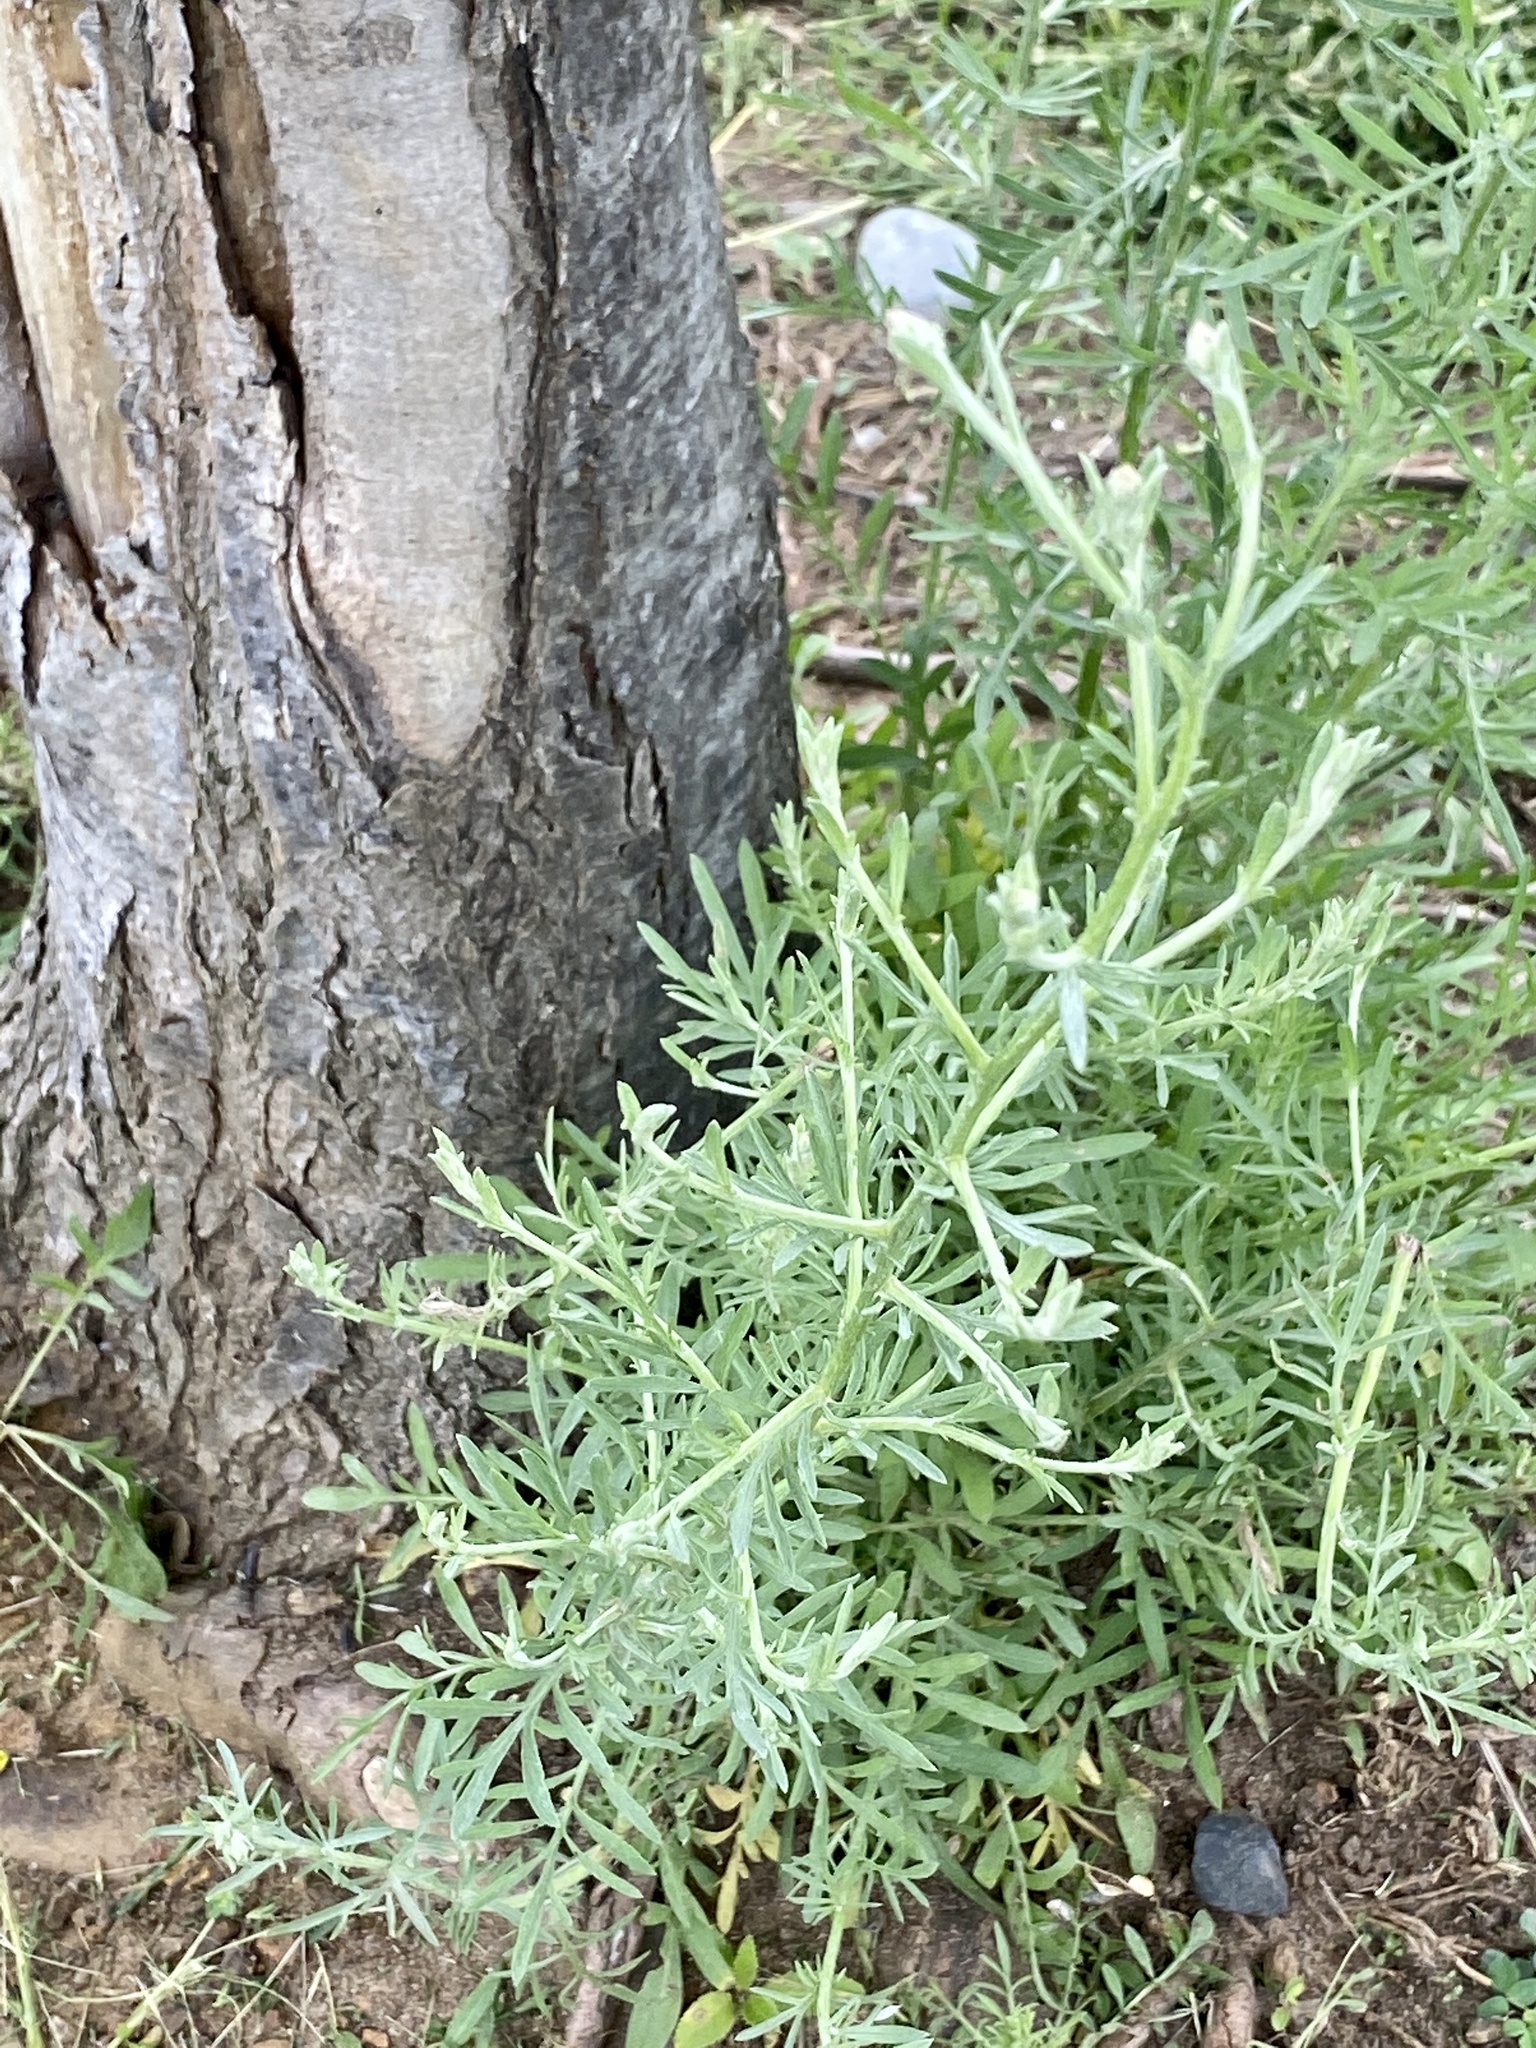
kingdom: Plantae
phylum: Tracheophyta
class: Magnoliopsida
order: Asterales
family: Asteraceae
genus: Centaurea
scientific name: Centaurea stoebe
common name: Spotted knapweed
